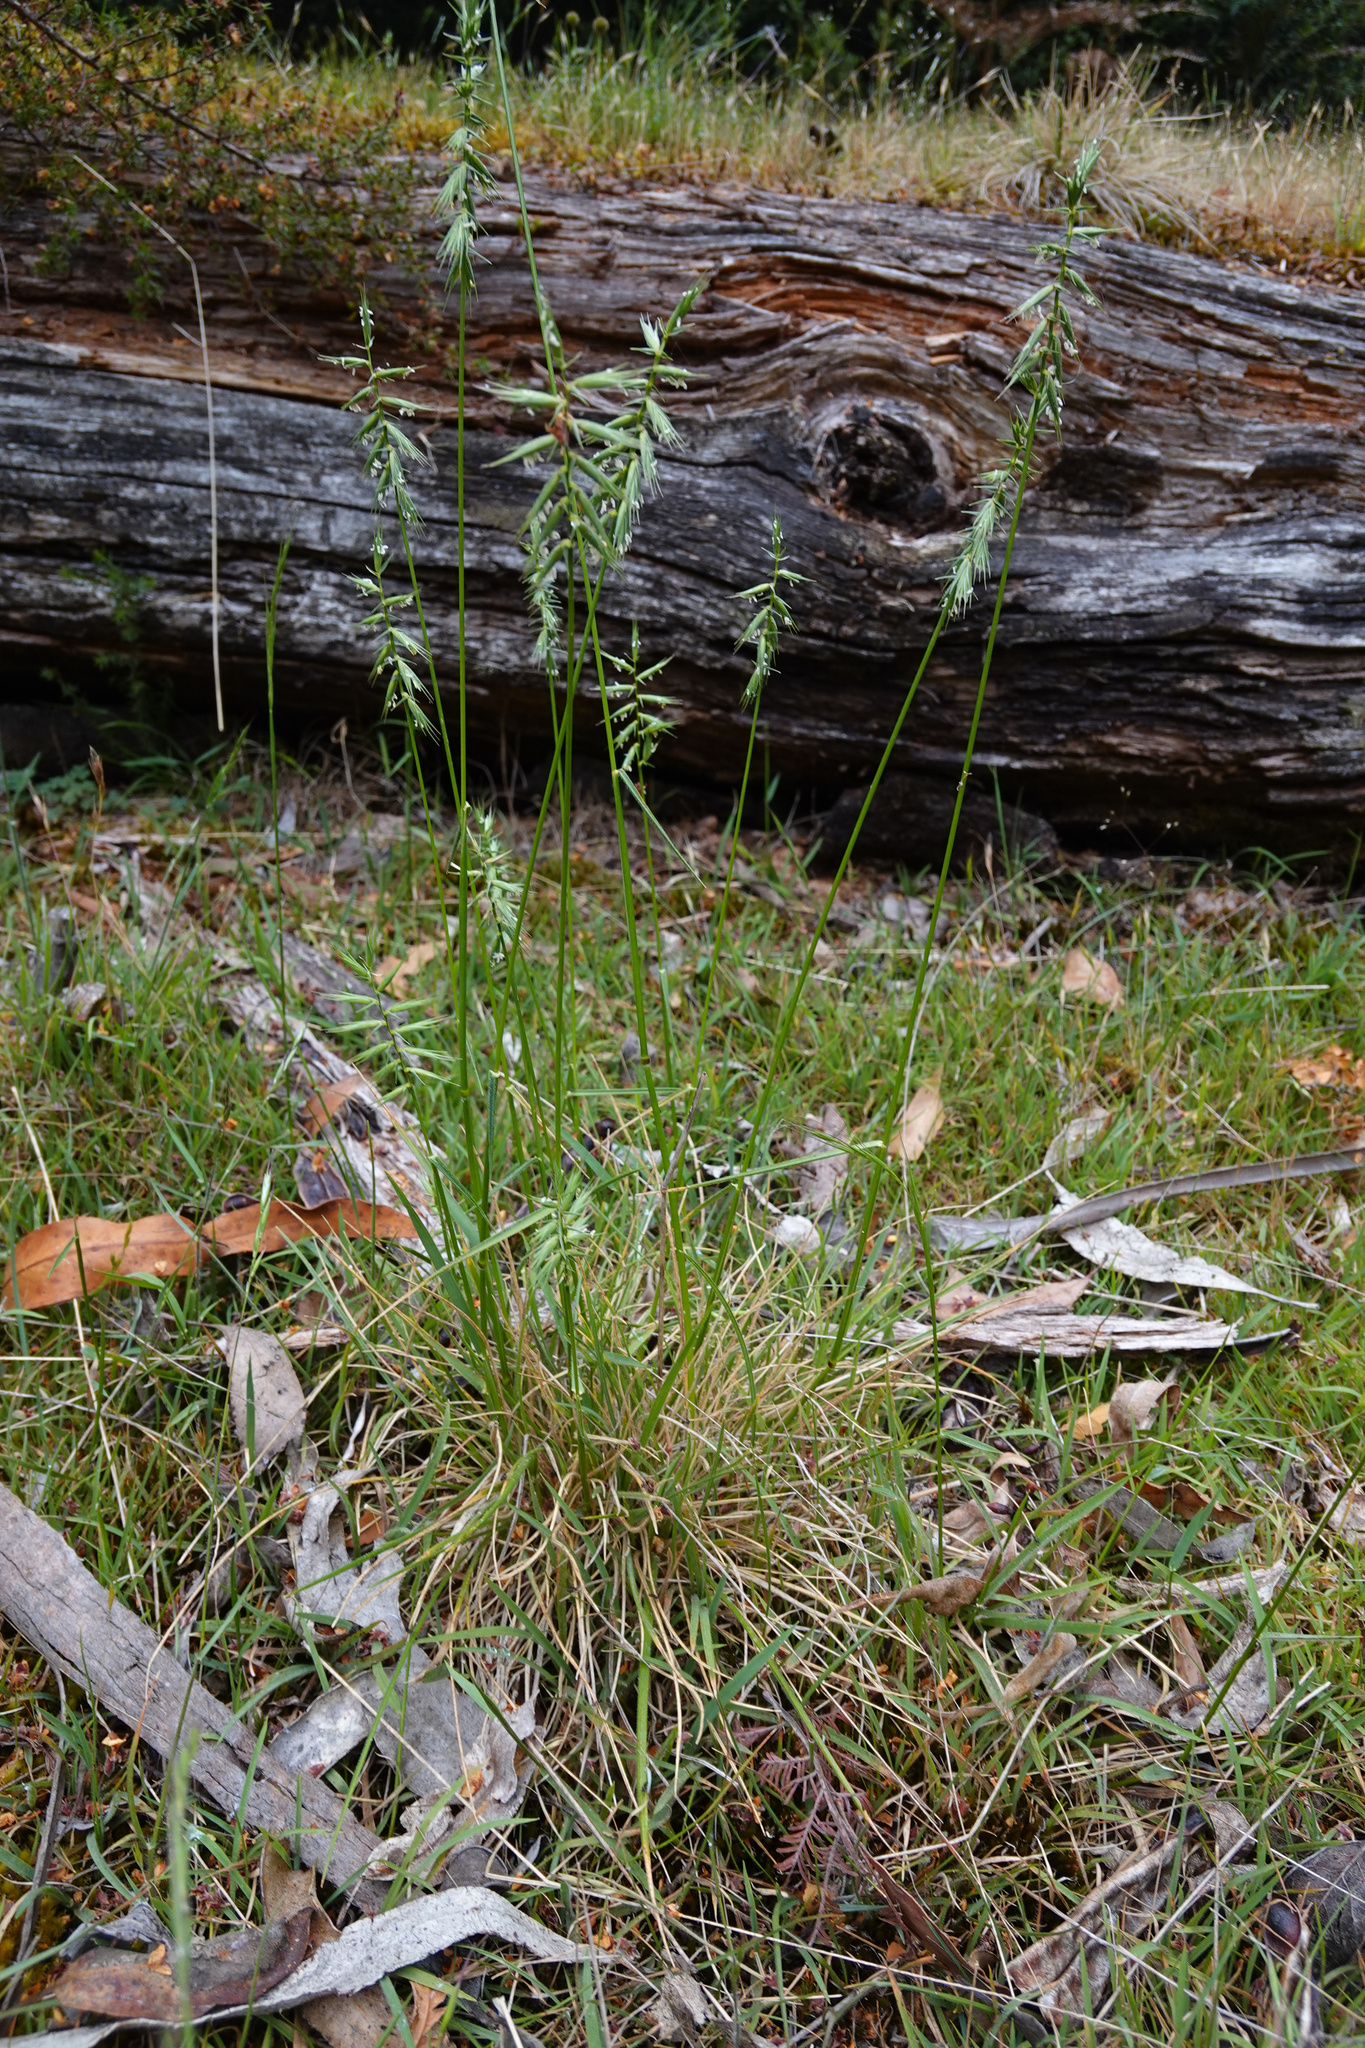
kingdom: Plantae
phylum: Tracheophyta
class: Liliopsida
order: Poales
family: Poaceae
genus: Australopyrum
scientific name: Australopyrum pectinatum
